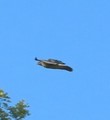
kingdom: Animalia
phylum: Chordata
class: Aves
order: Accipitriformes
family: Accipitridae
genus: Buteo
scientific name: Buteo jamaicensis
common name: Red-tailed hawk
